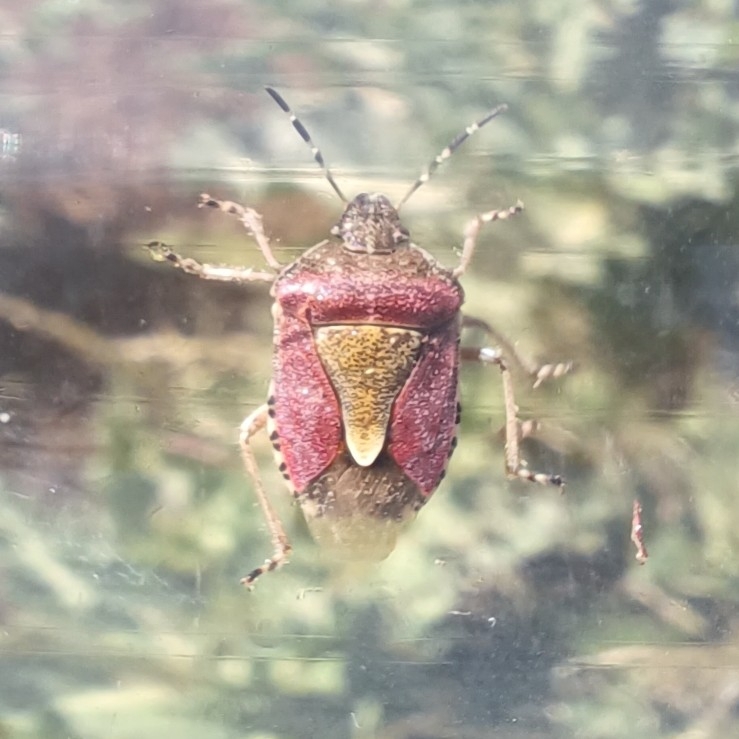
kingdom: Animalia
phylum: Arthropoda
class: Insecta
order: Hemiptera
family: Pentatomidae
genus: Dolycoris
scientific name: Dolycoris baccarum
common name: Sloe bug
